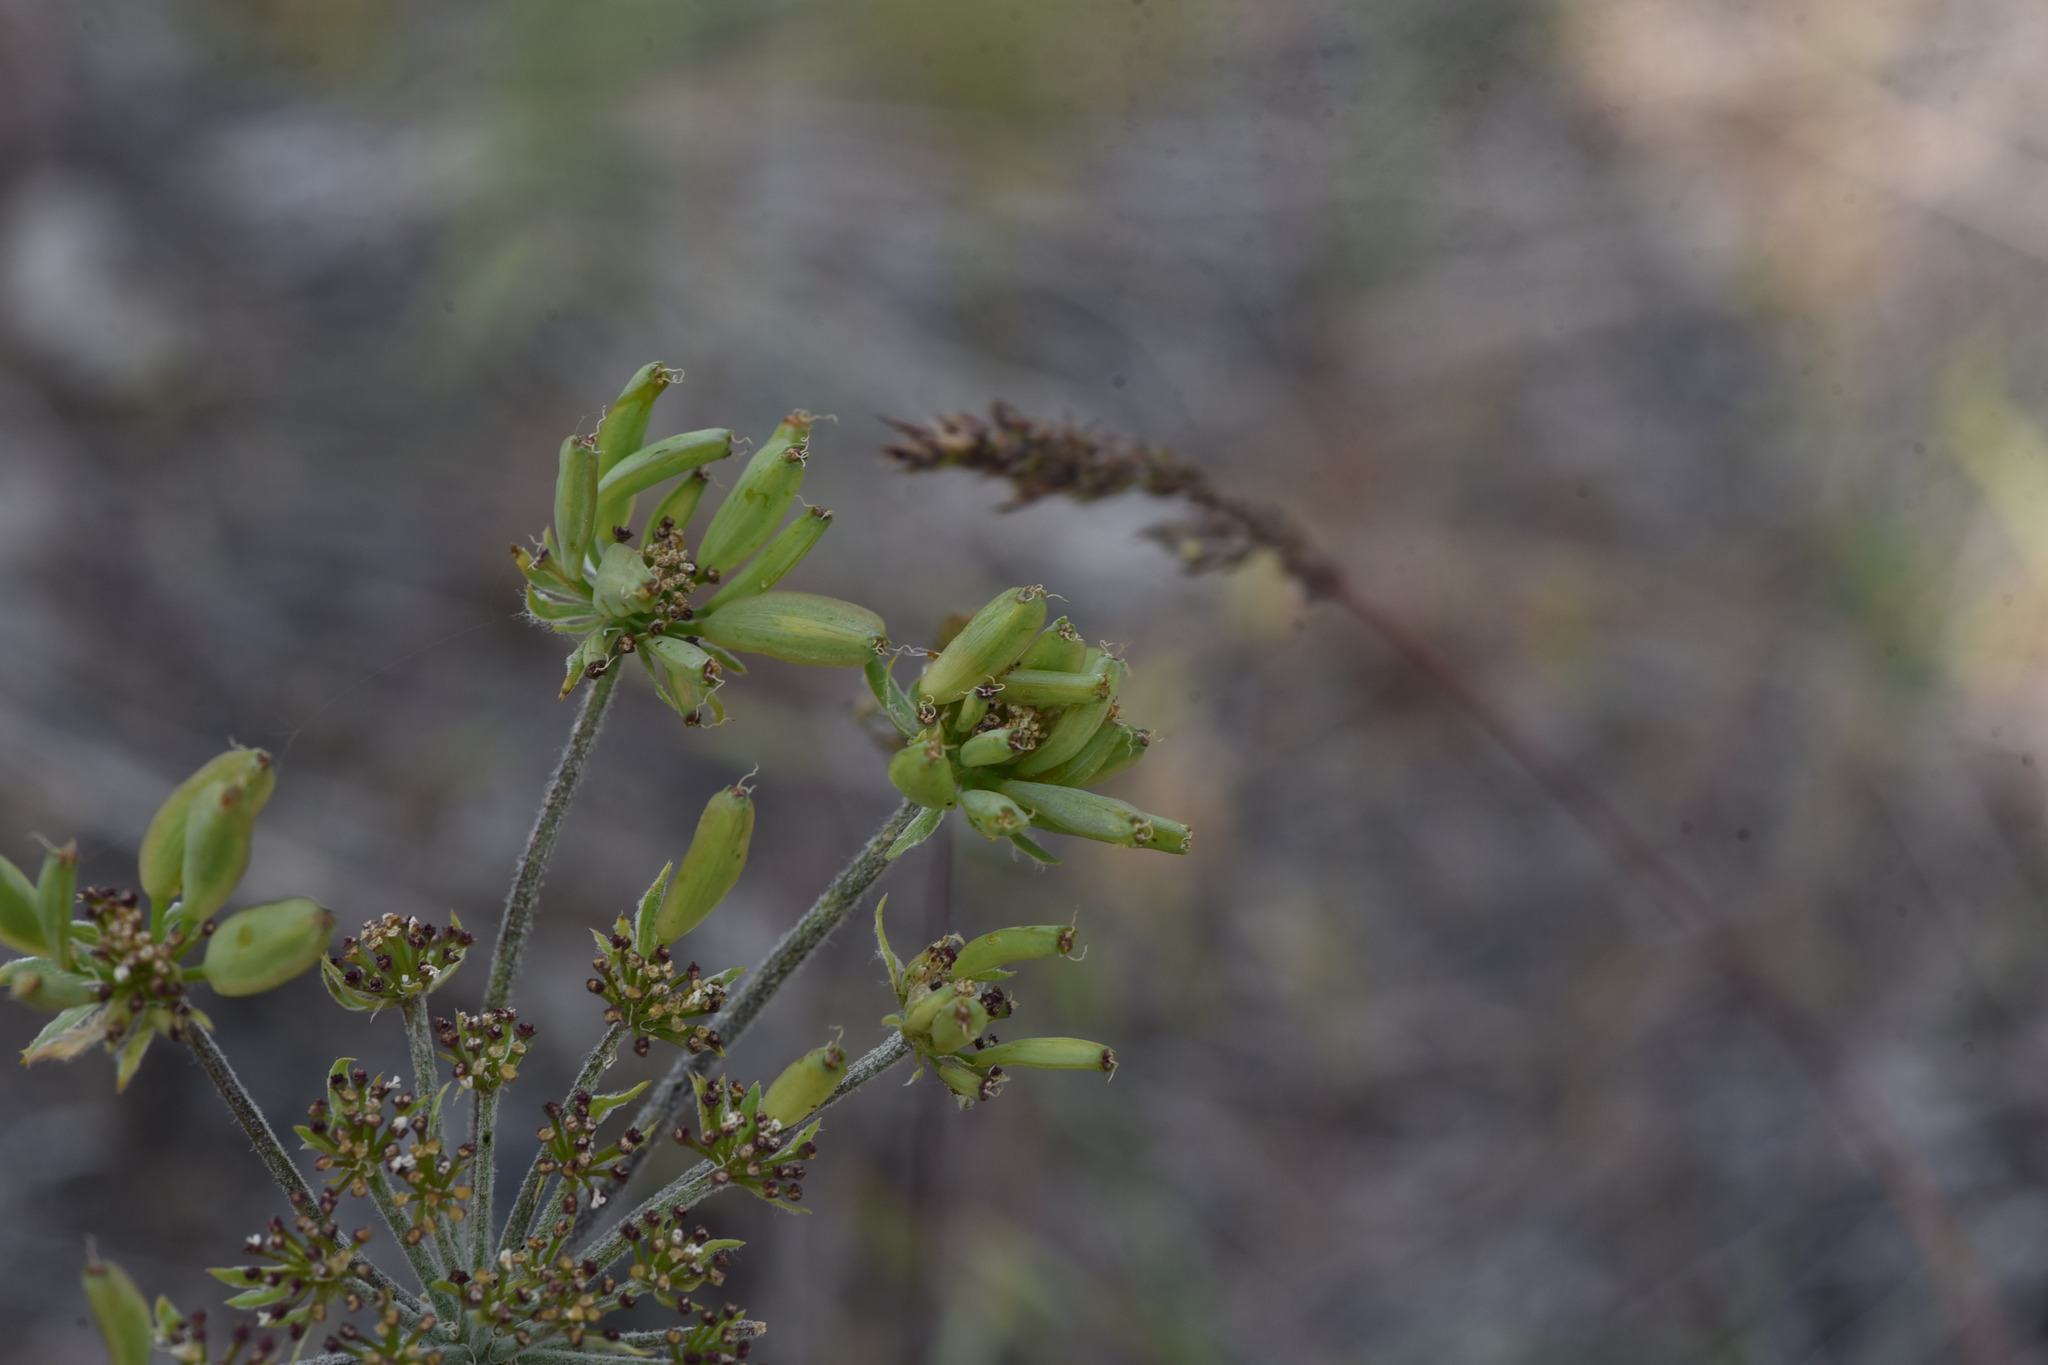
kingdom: Plantae
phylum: Tracheophyta
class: Magnoliopsida
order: Apiales
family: Apiaceae
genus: Lomatium
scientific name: Lomatium macrocarpum
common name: Big-seed biscuitroot
